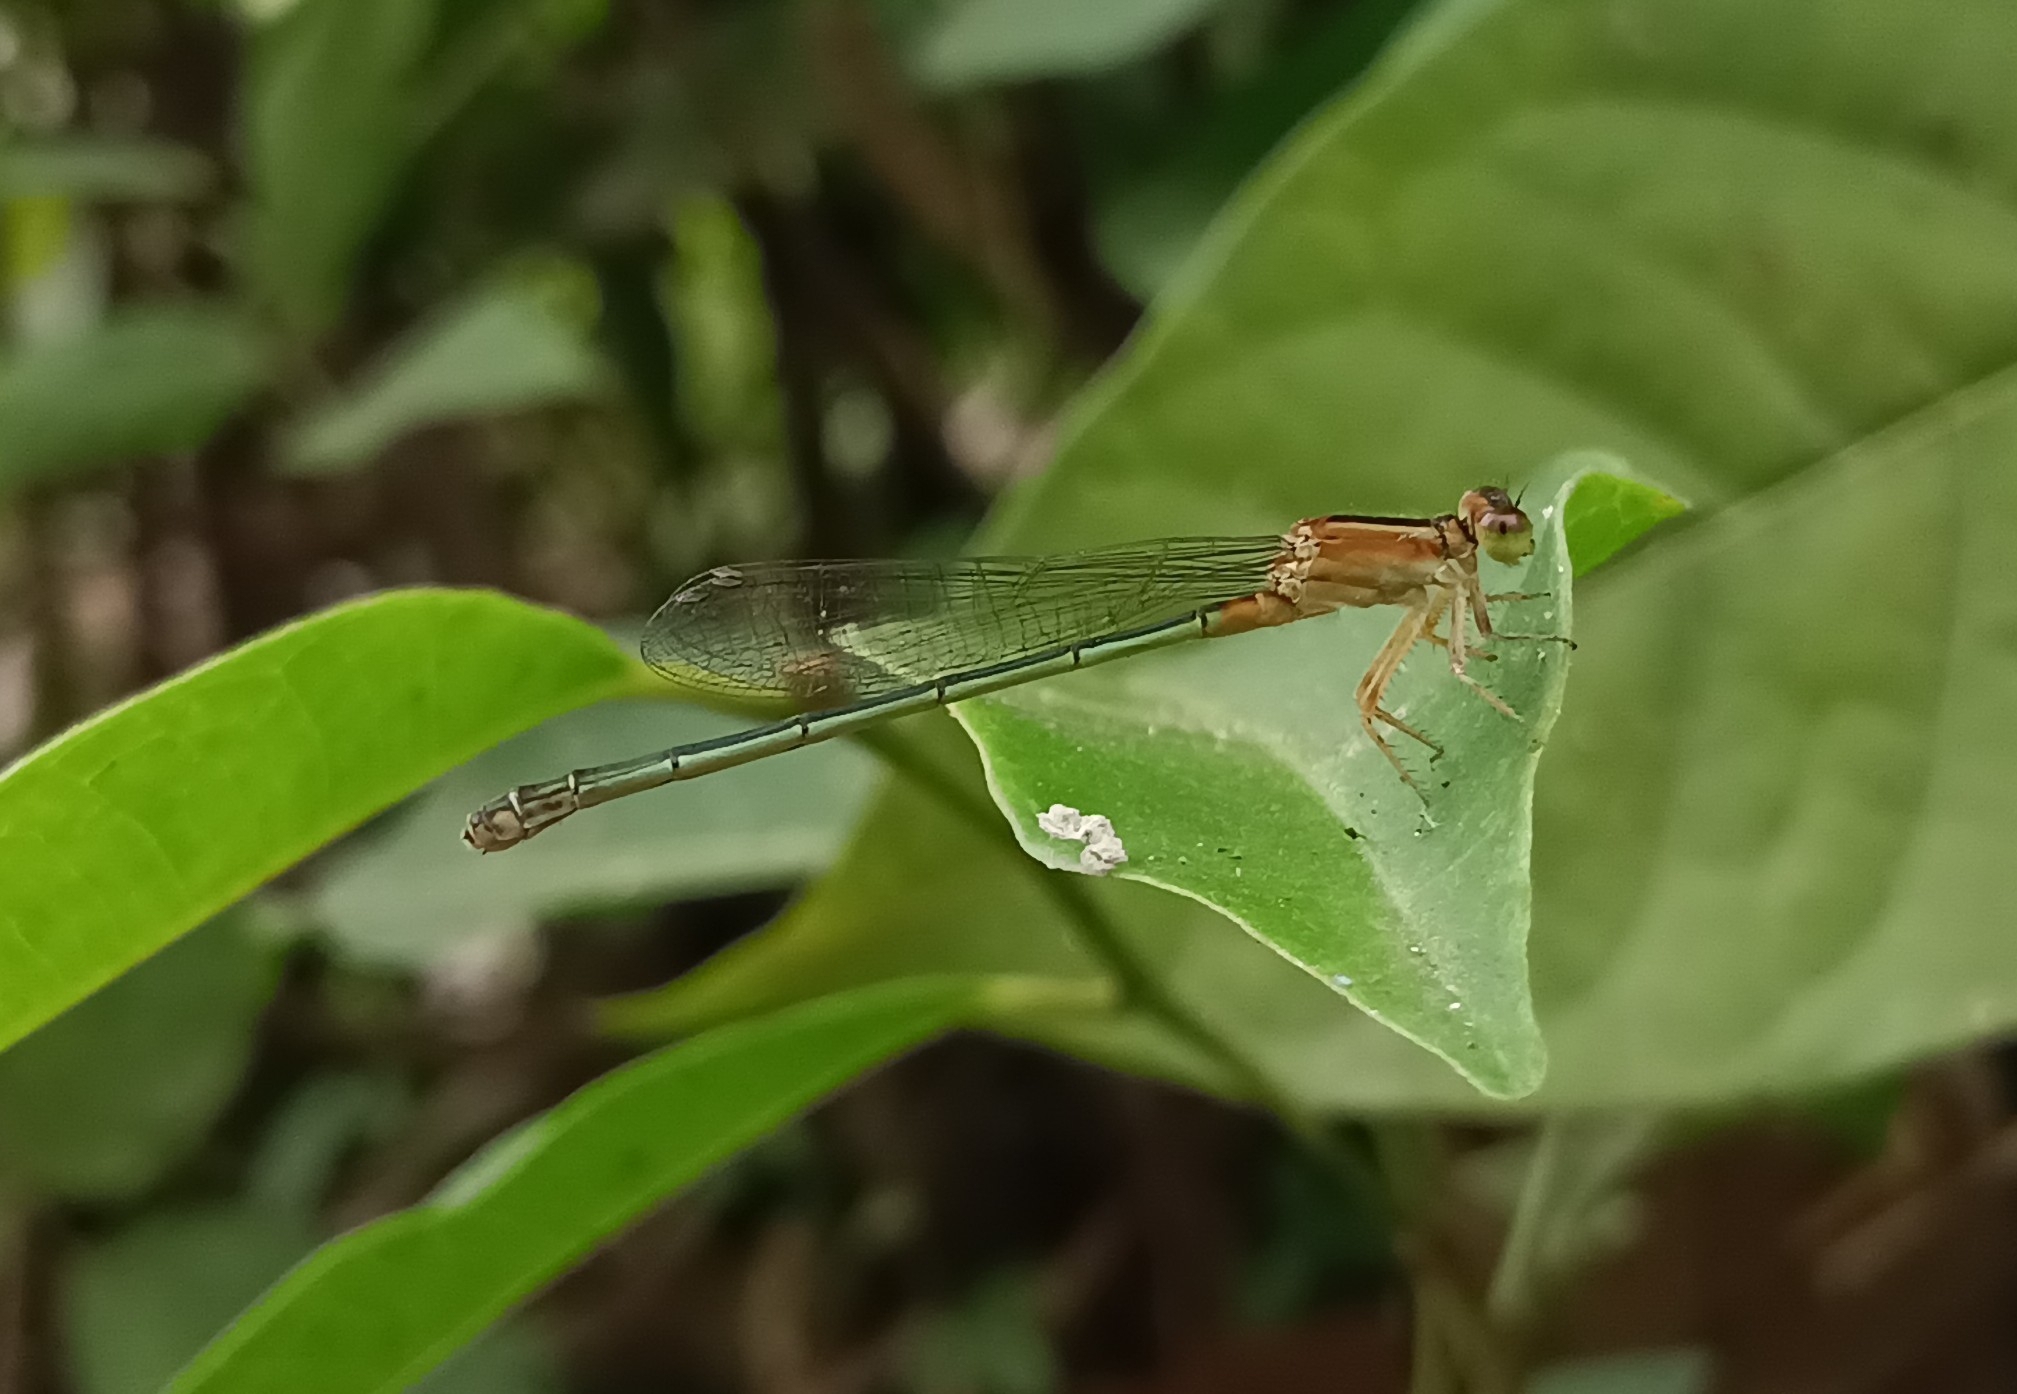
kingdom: Animalia
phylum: Arthropoda
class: Insecta
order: Odonata
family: Coenagrionidae
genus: Ischnura
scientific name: Ischnura senegalensis
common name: Tropical bluetail
